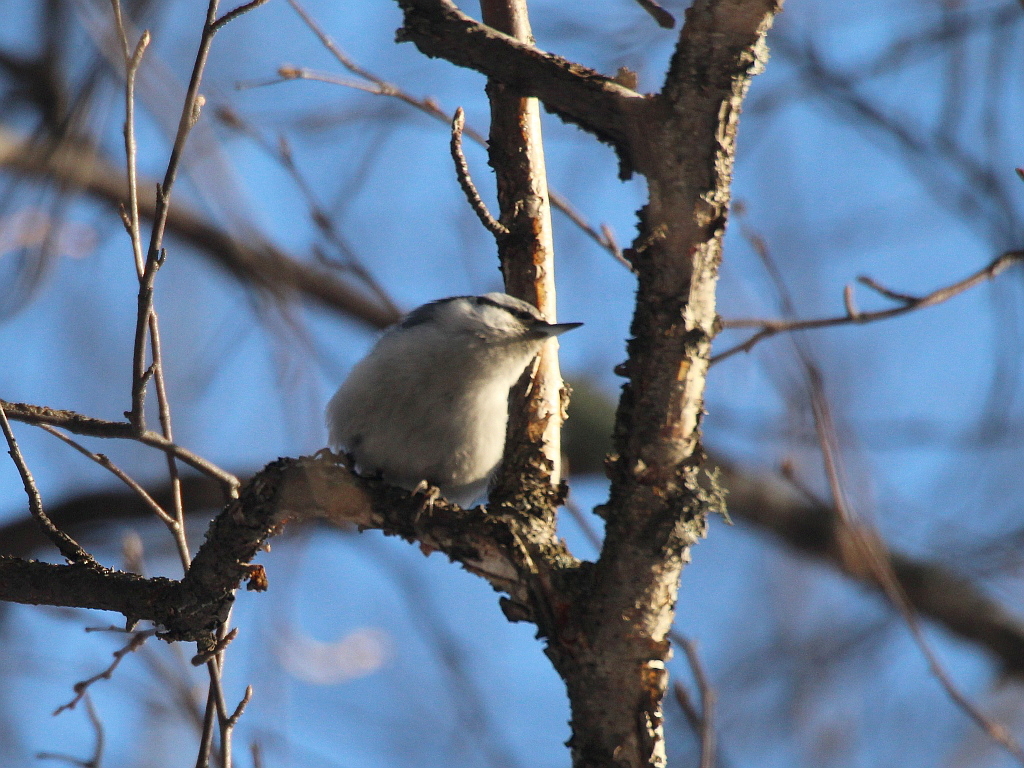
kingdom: Animalia
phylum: Chordata
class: Aves
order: Passeriformes
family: Sittidae
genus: Sitta
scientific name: Sitta europaea
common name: Eurasian nuthatch
